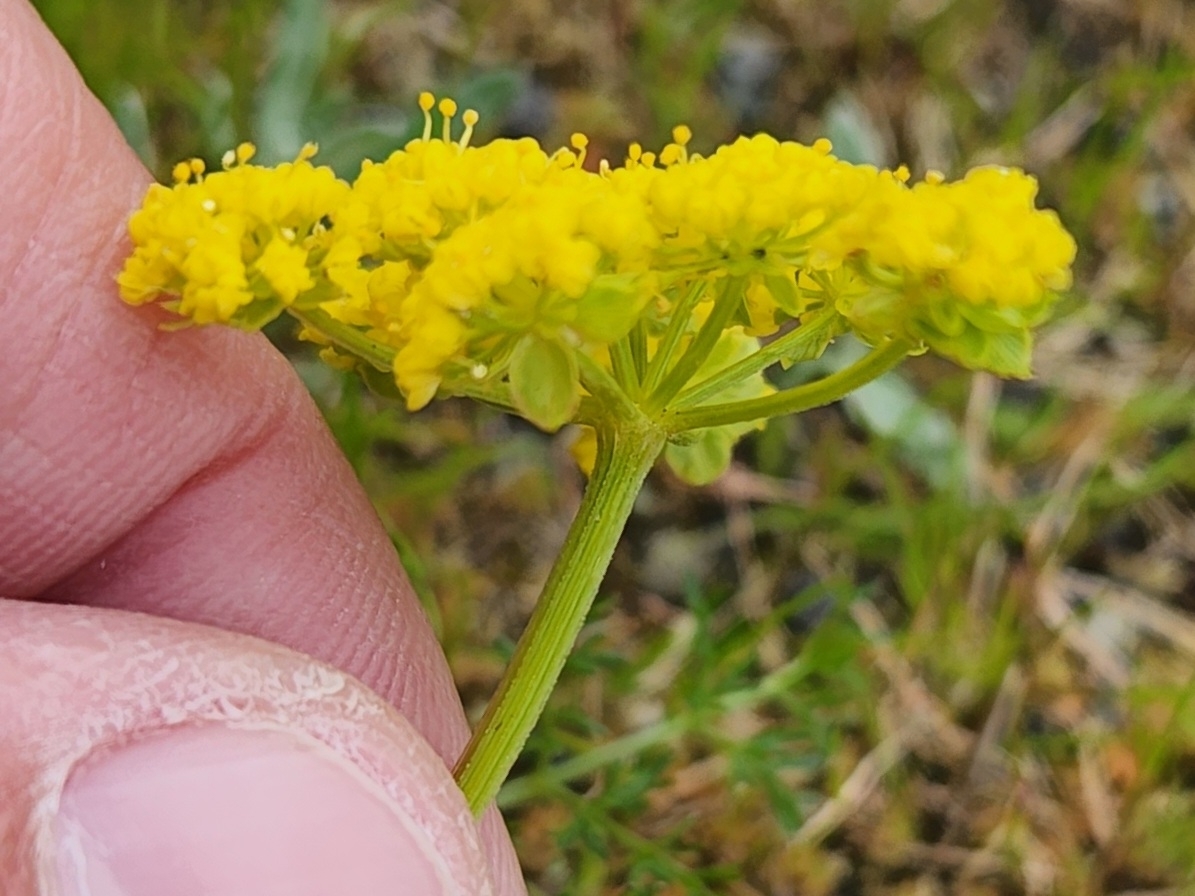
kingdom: Plantae
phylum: Tracheophyta
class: Magnoliopsida
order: Apiales
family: Apiaceae
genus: Lomatium
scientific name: Lomatium utriculatum
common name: Fine-leaf desert-parsley
